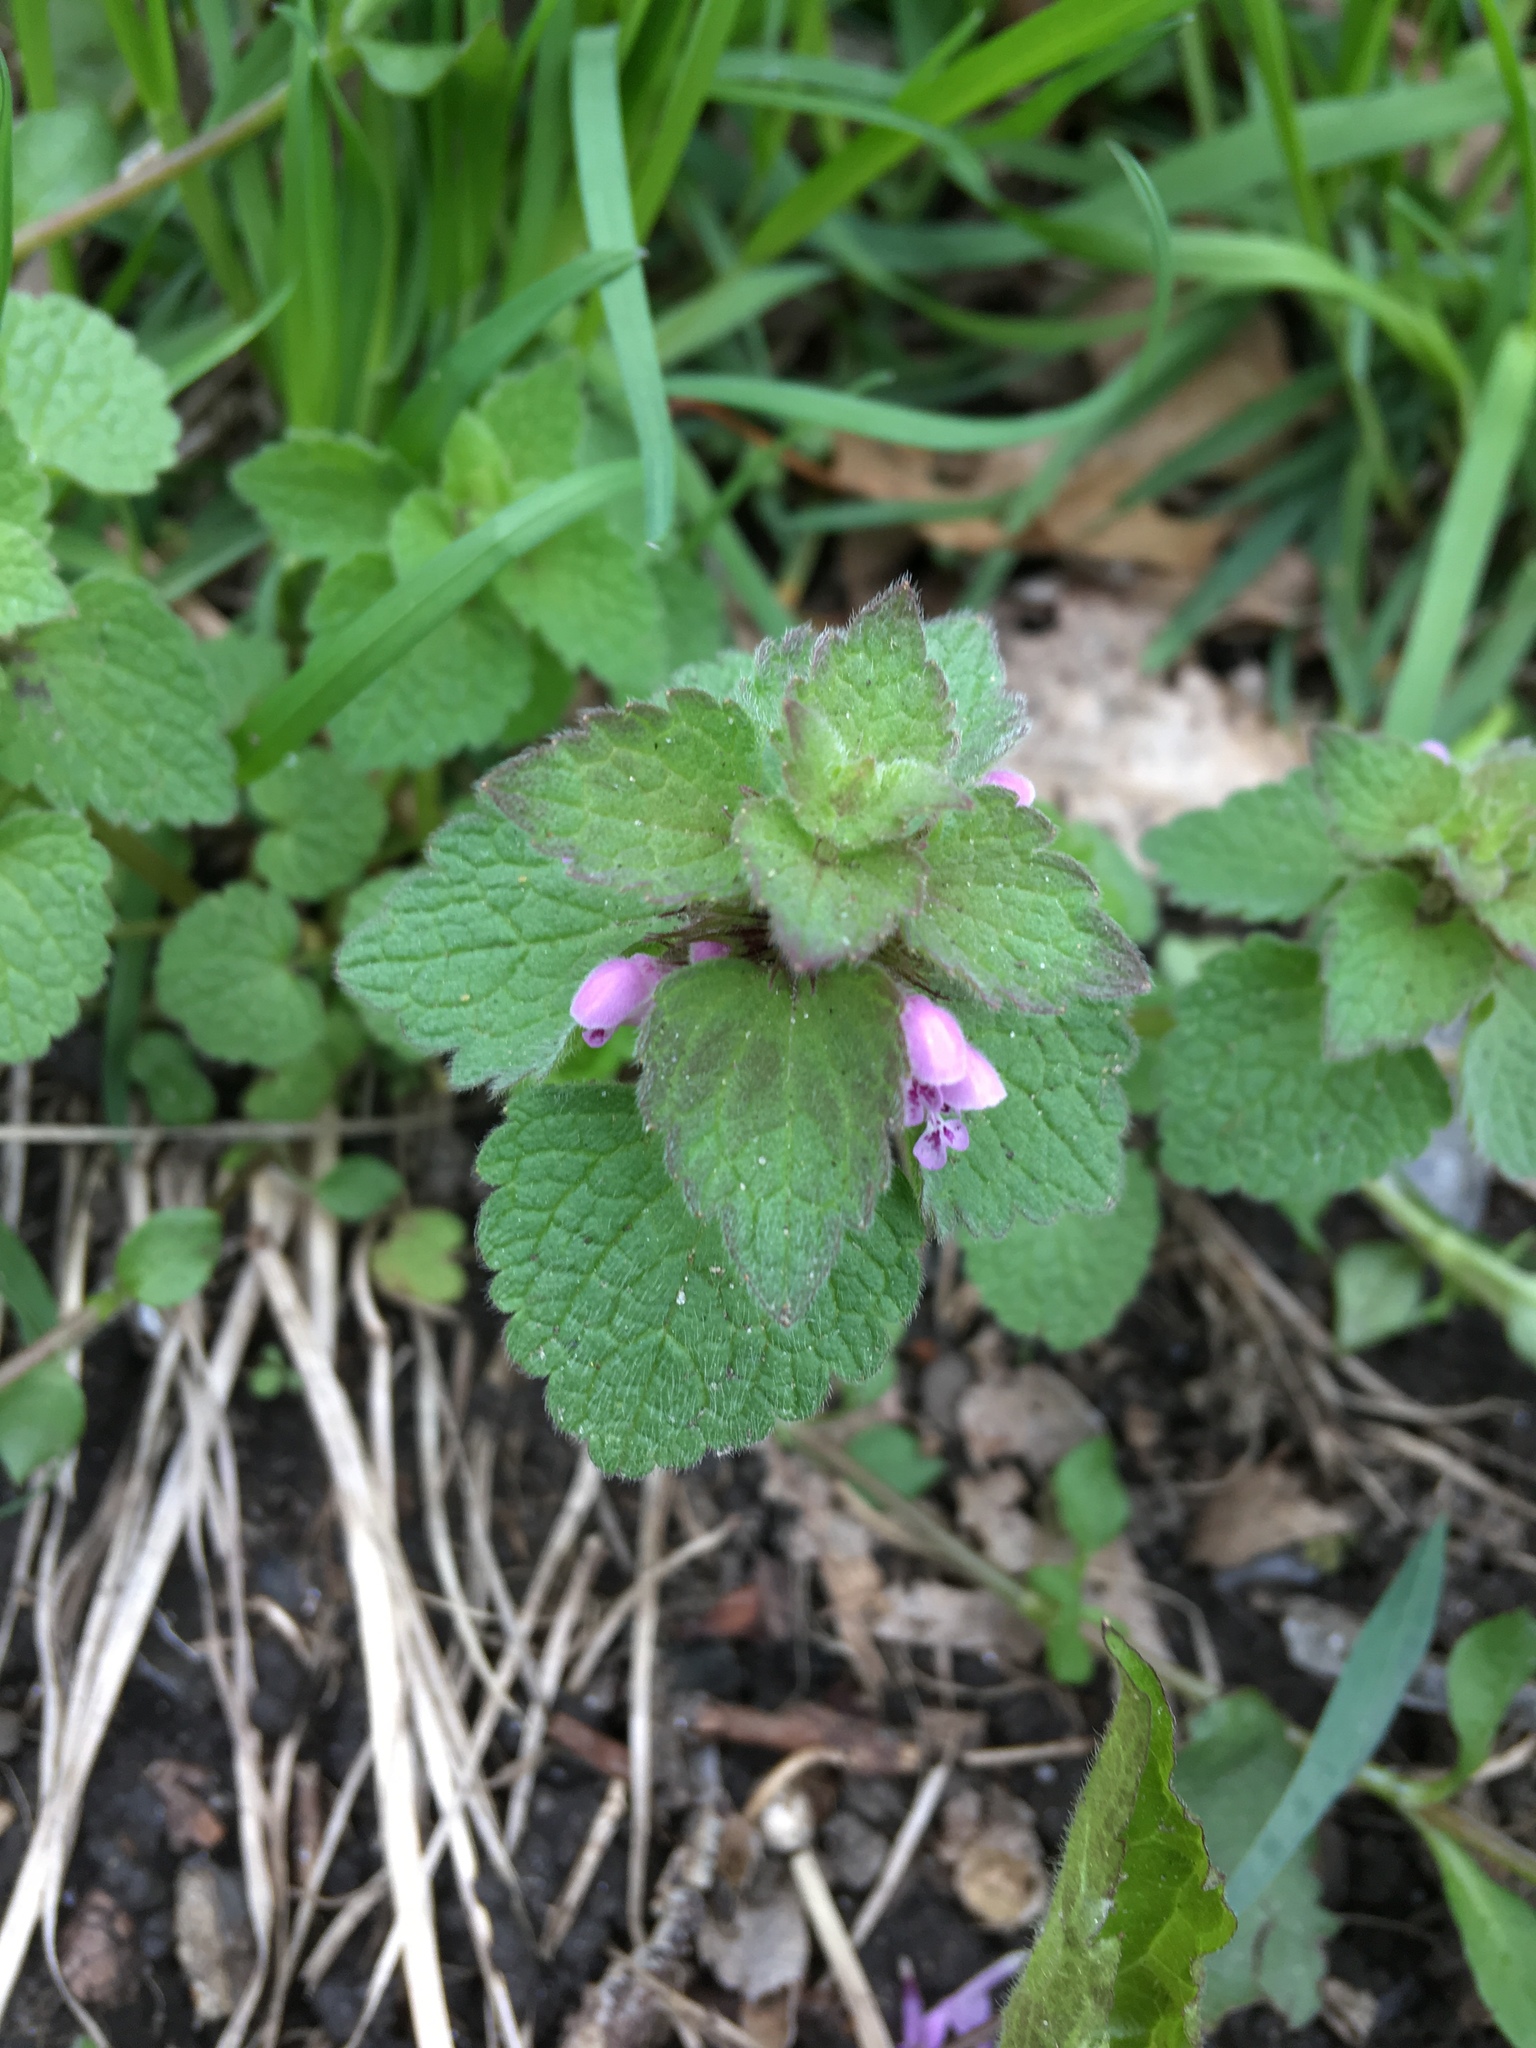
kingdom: Plantae
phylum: Tracheophyta
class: Magnoliopsida
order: Lamiales
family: Lamiaceae
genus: Lamium
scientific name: Lamium purpureum
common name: Red dead-nettle
